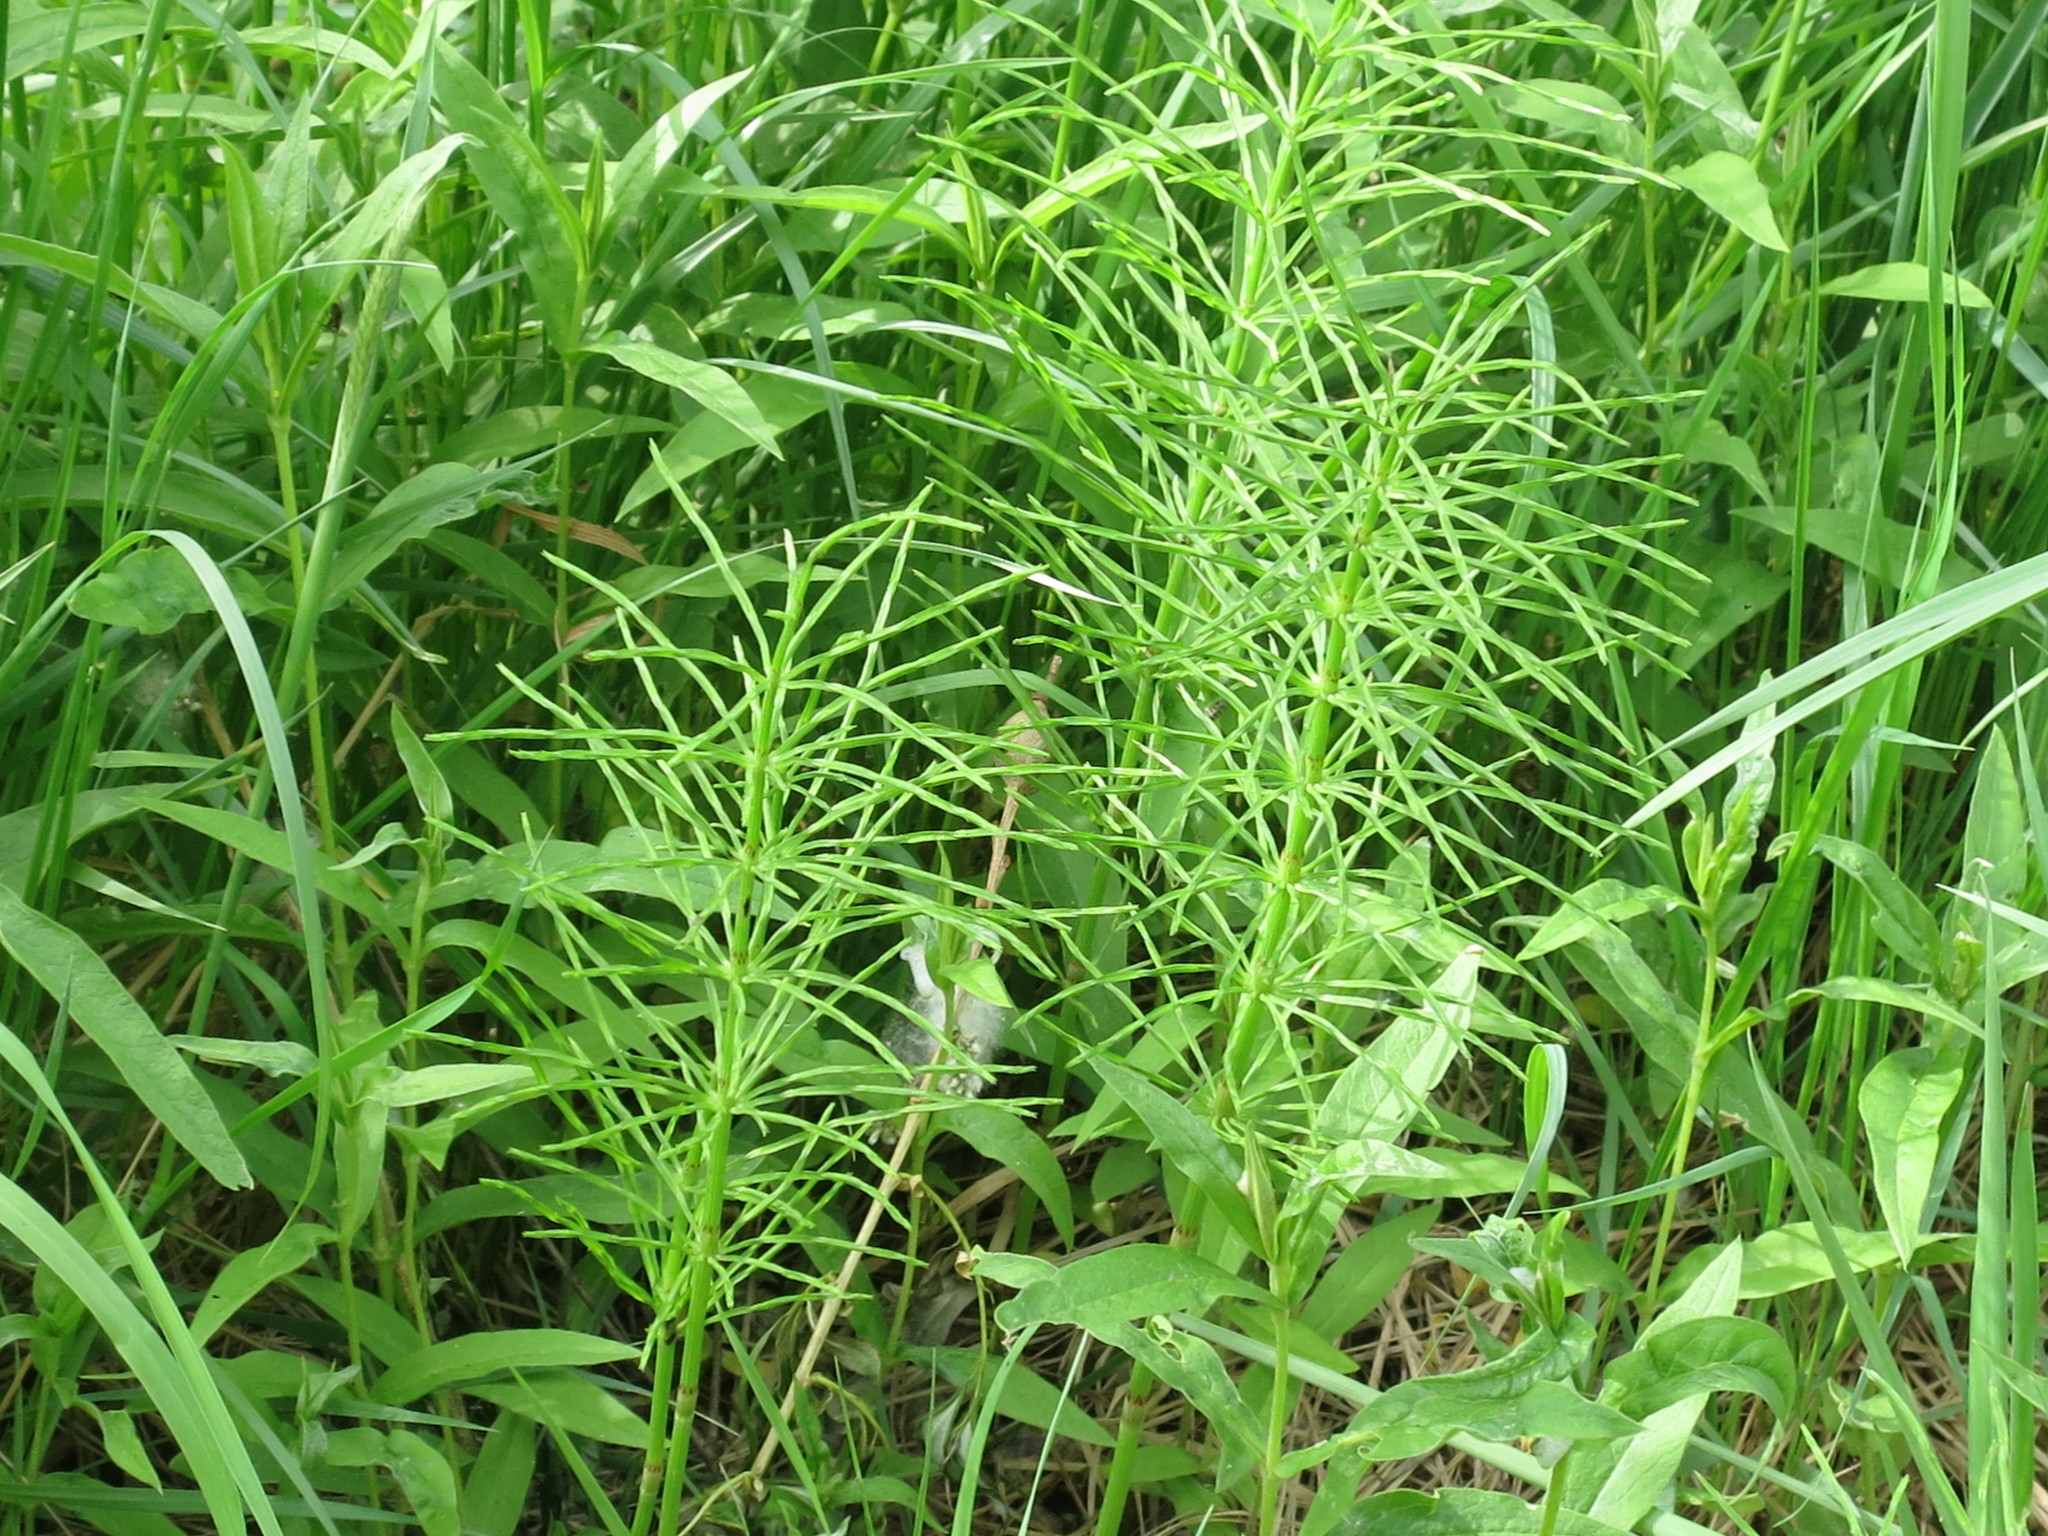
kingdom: Plantae
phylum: Tracheophyta
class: Polypodiopsida
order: Equisetales
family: Equisetaceae
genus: Equisetum
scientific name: Equisetum arvense
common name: Field horsetail
